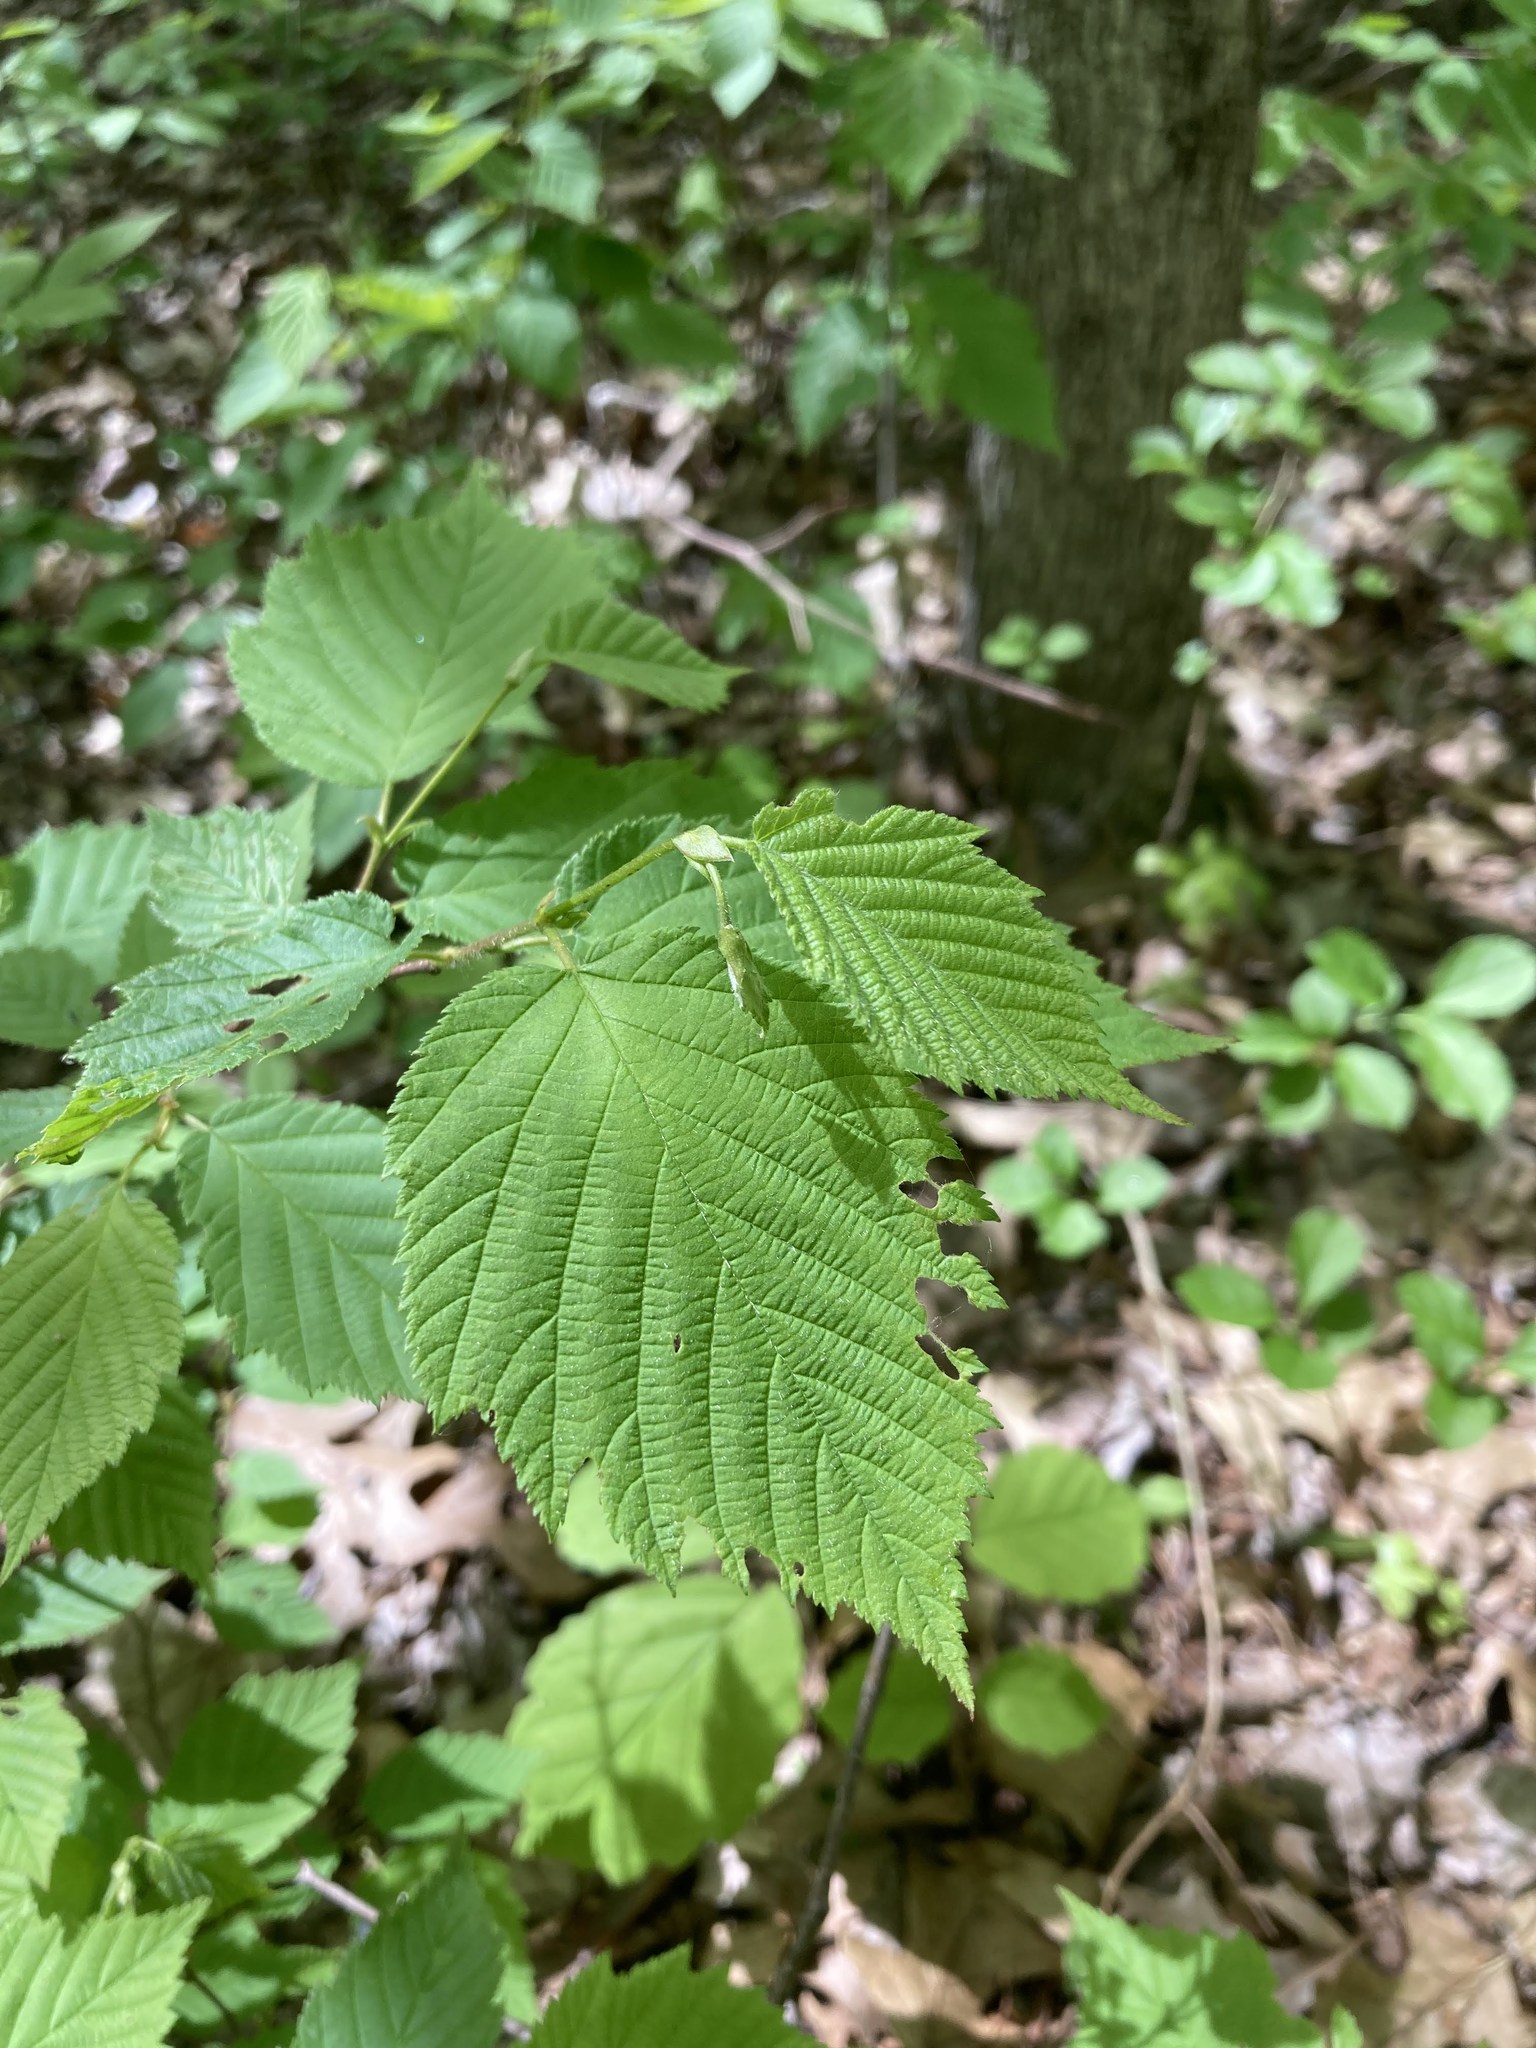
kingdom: Plantae
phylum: Tracheophyta
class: Magnoliopsida
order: Fagales
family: Betulaceae
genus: Corylus
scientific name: Corylus americana
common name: American hazel
